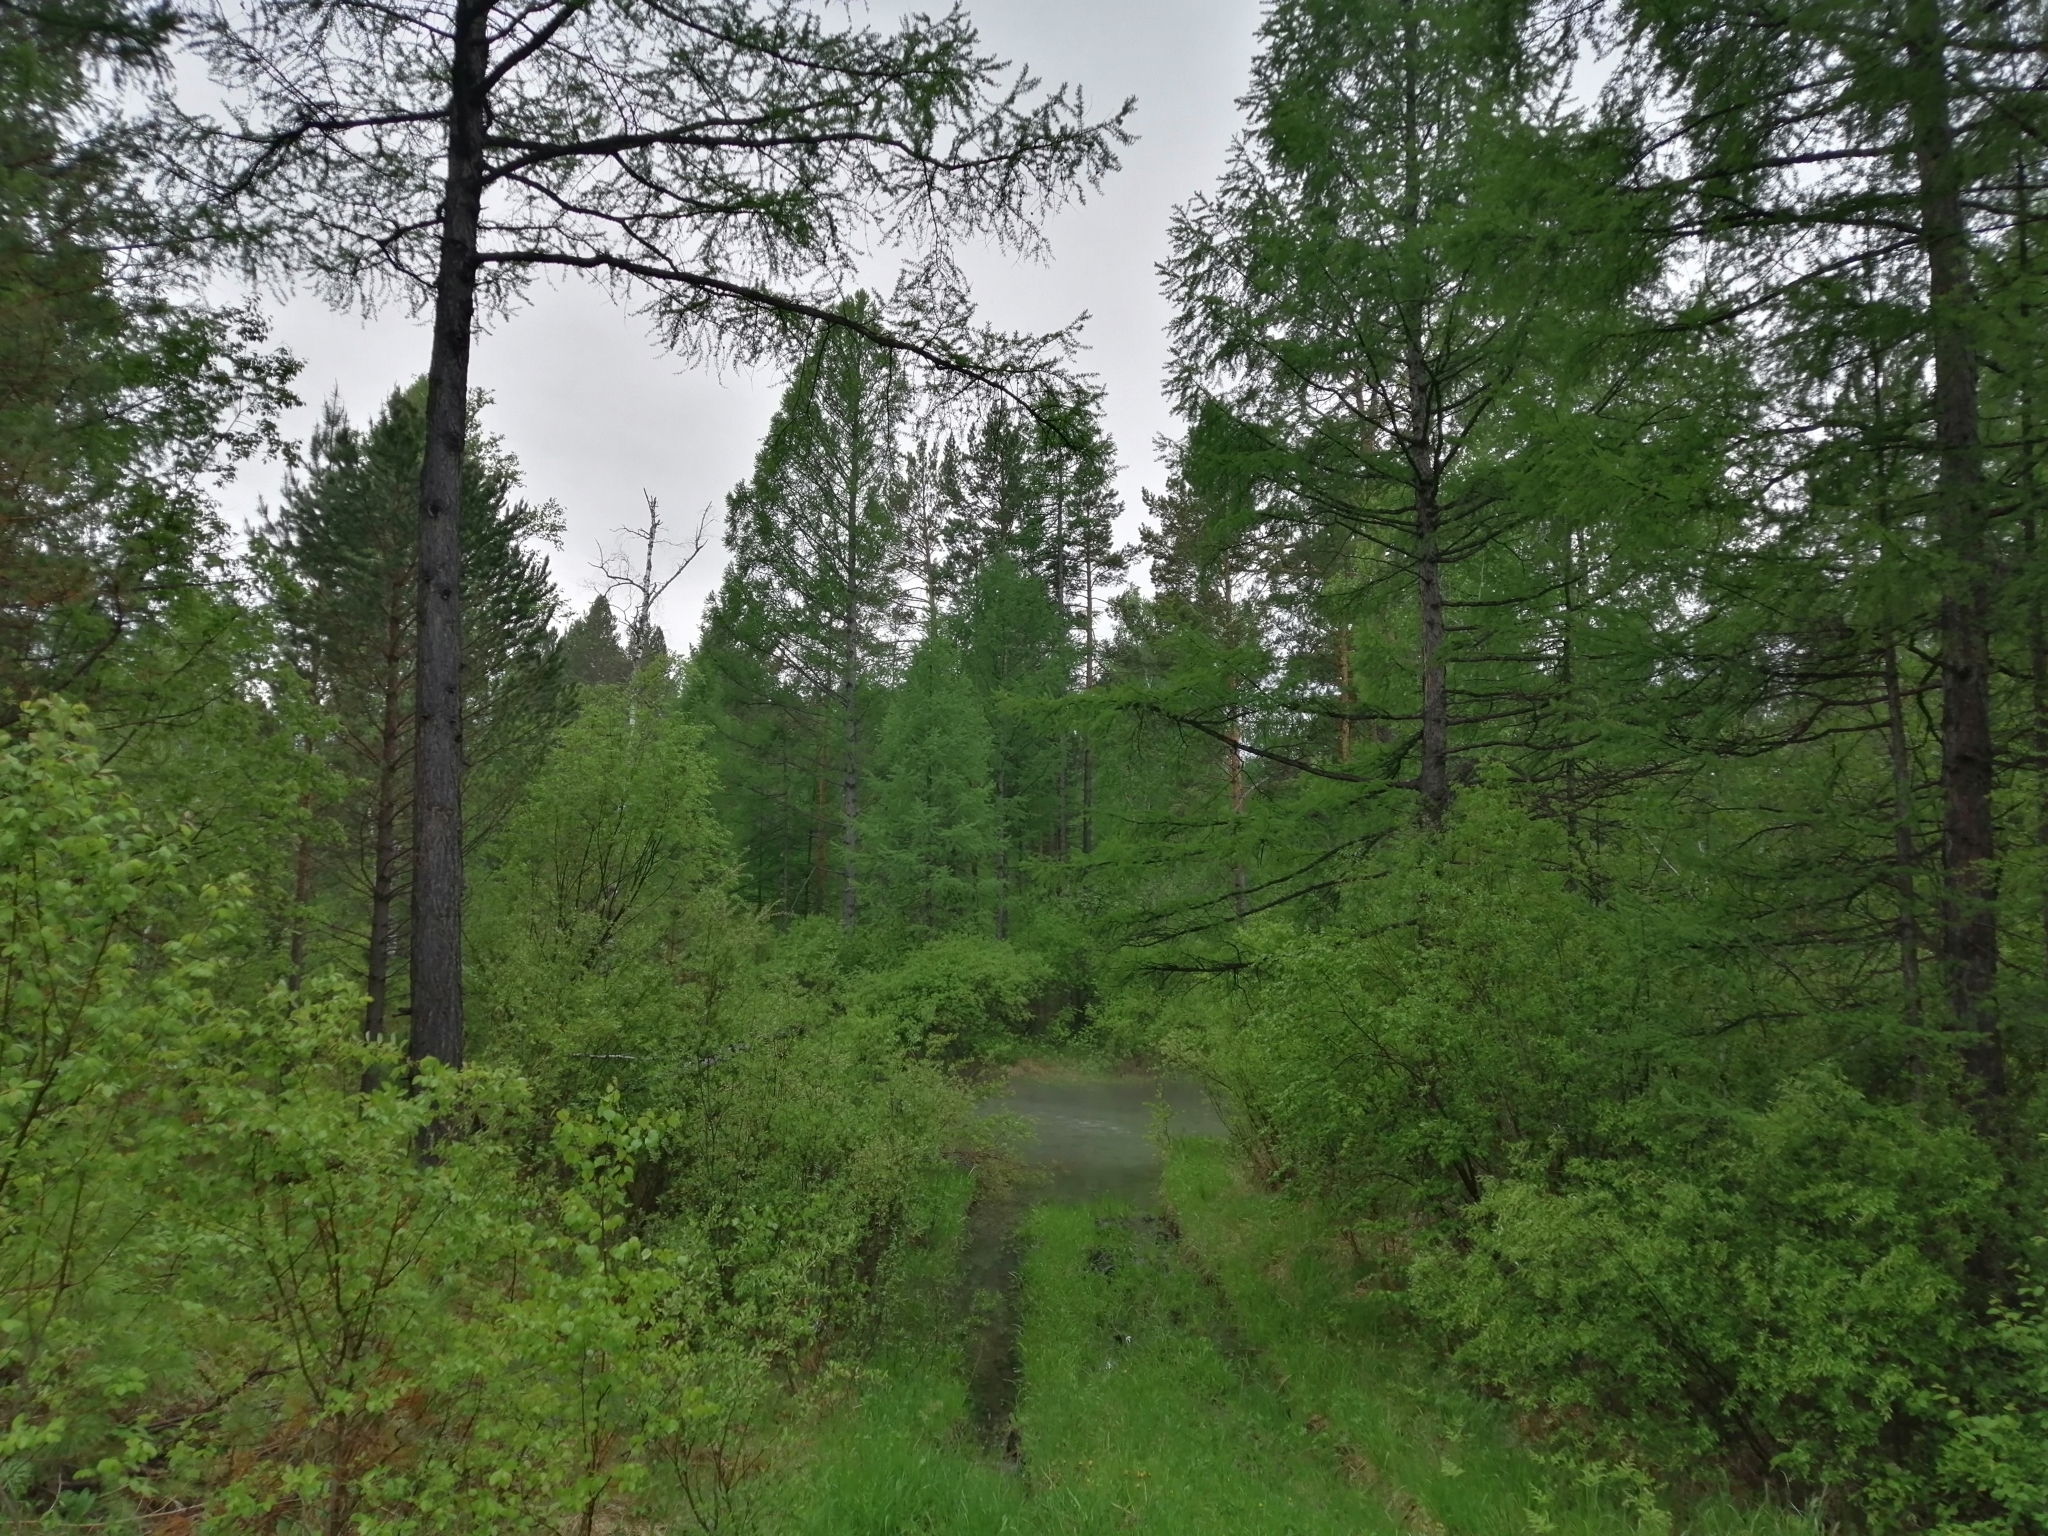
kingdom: Plantae
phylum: Tracheophyta
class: Pinopsida
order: Pinales
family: Pinaceae
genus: Larix
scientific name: Larix sibirica
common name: Siberian larch
